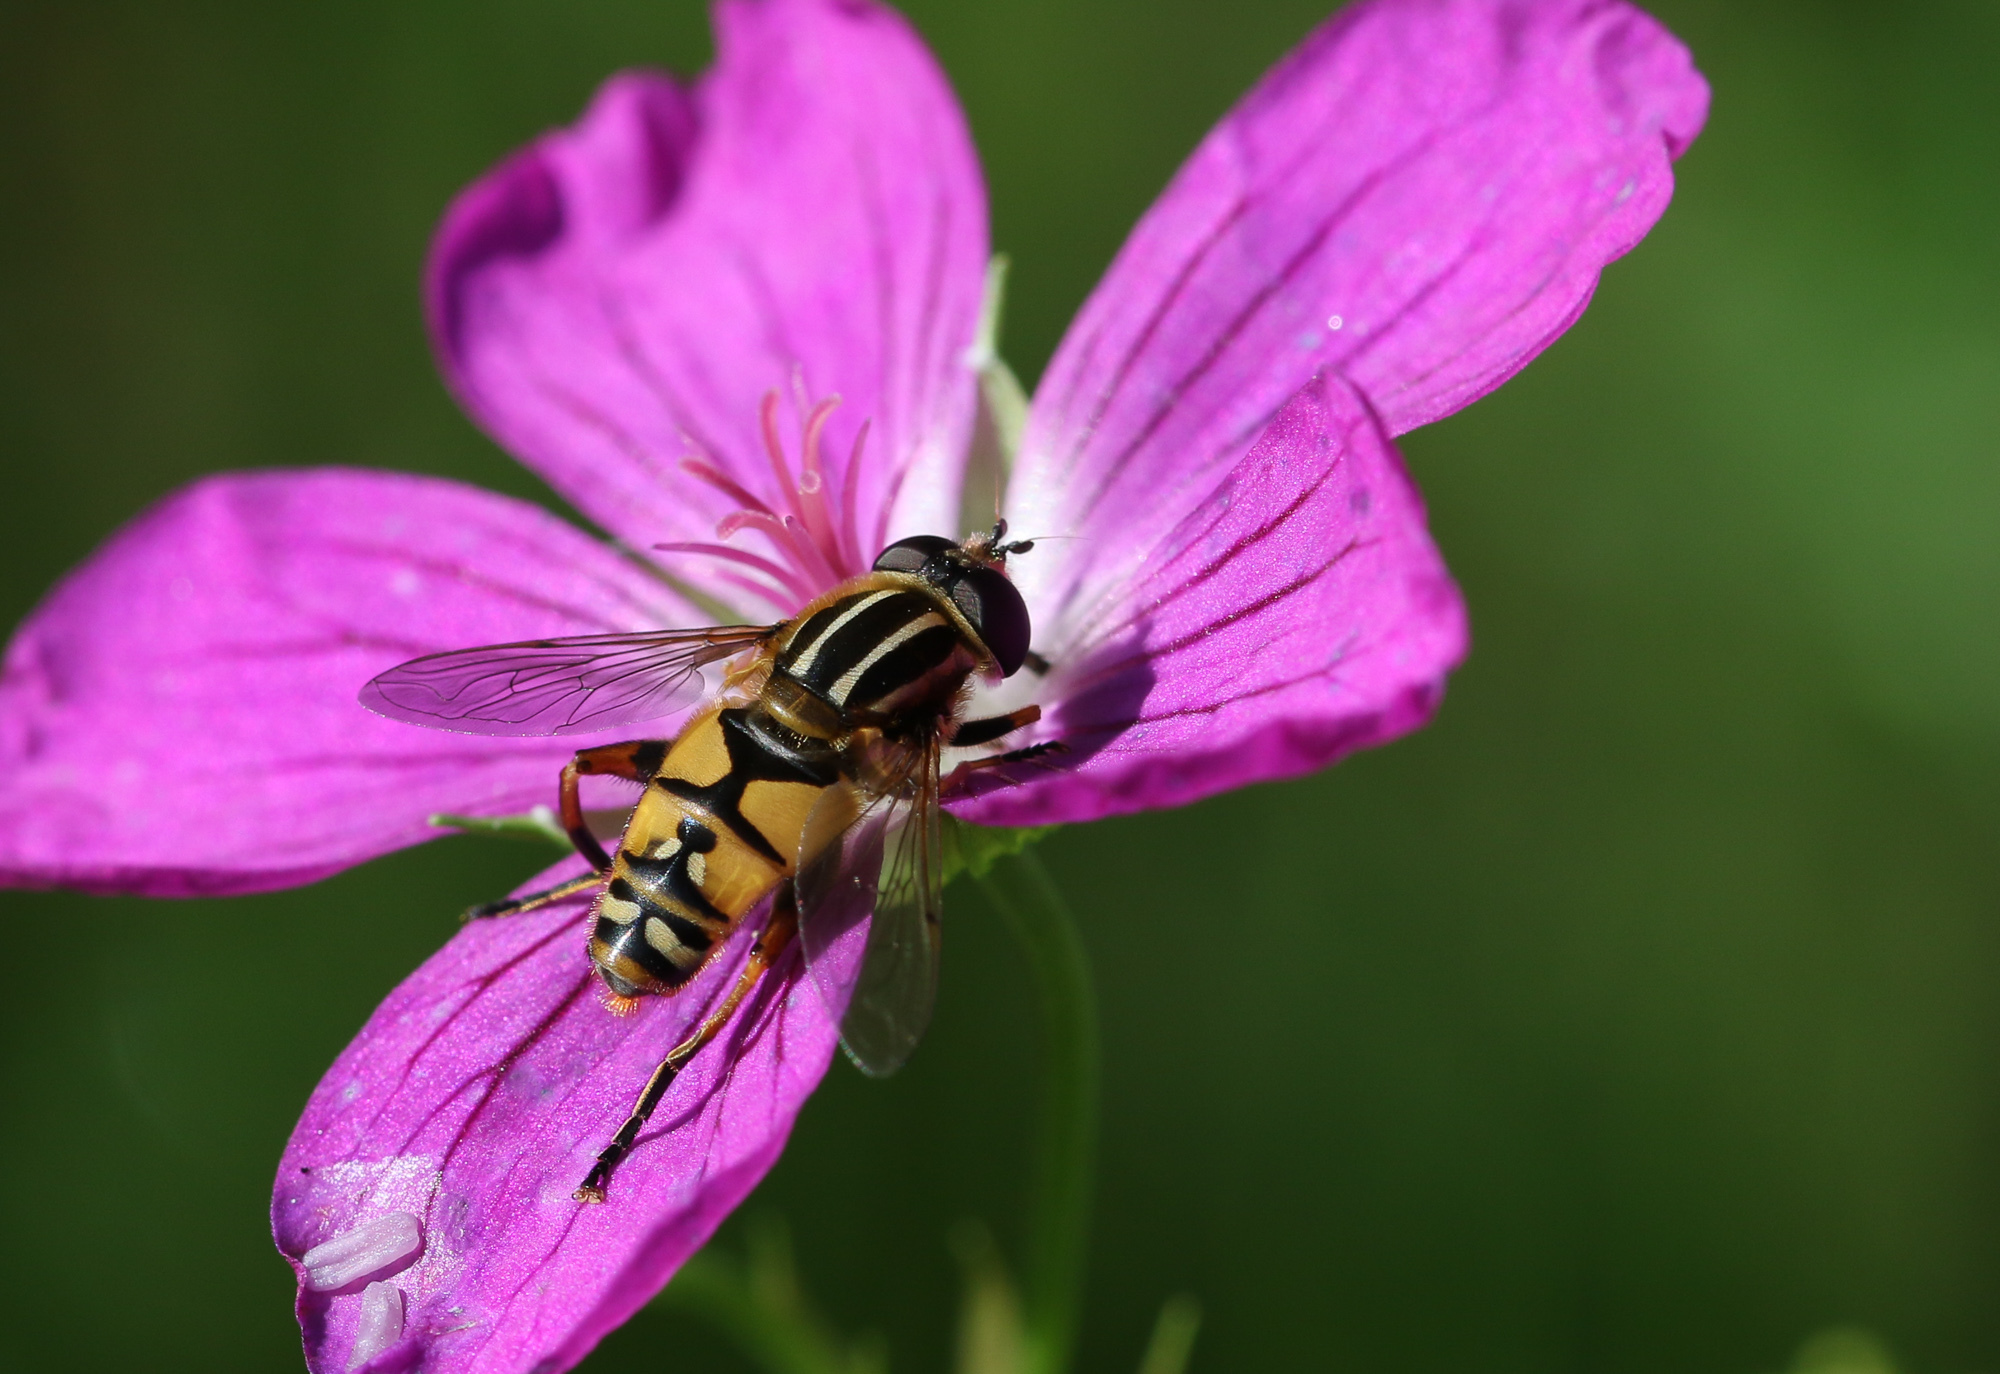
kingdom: Animalia
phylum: Arthropoda
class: Insecta
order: Diptera
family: Syrphidae
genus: Helophilus
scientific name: Helophilus pendulus
